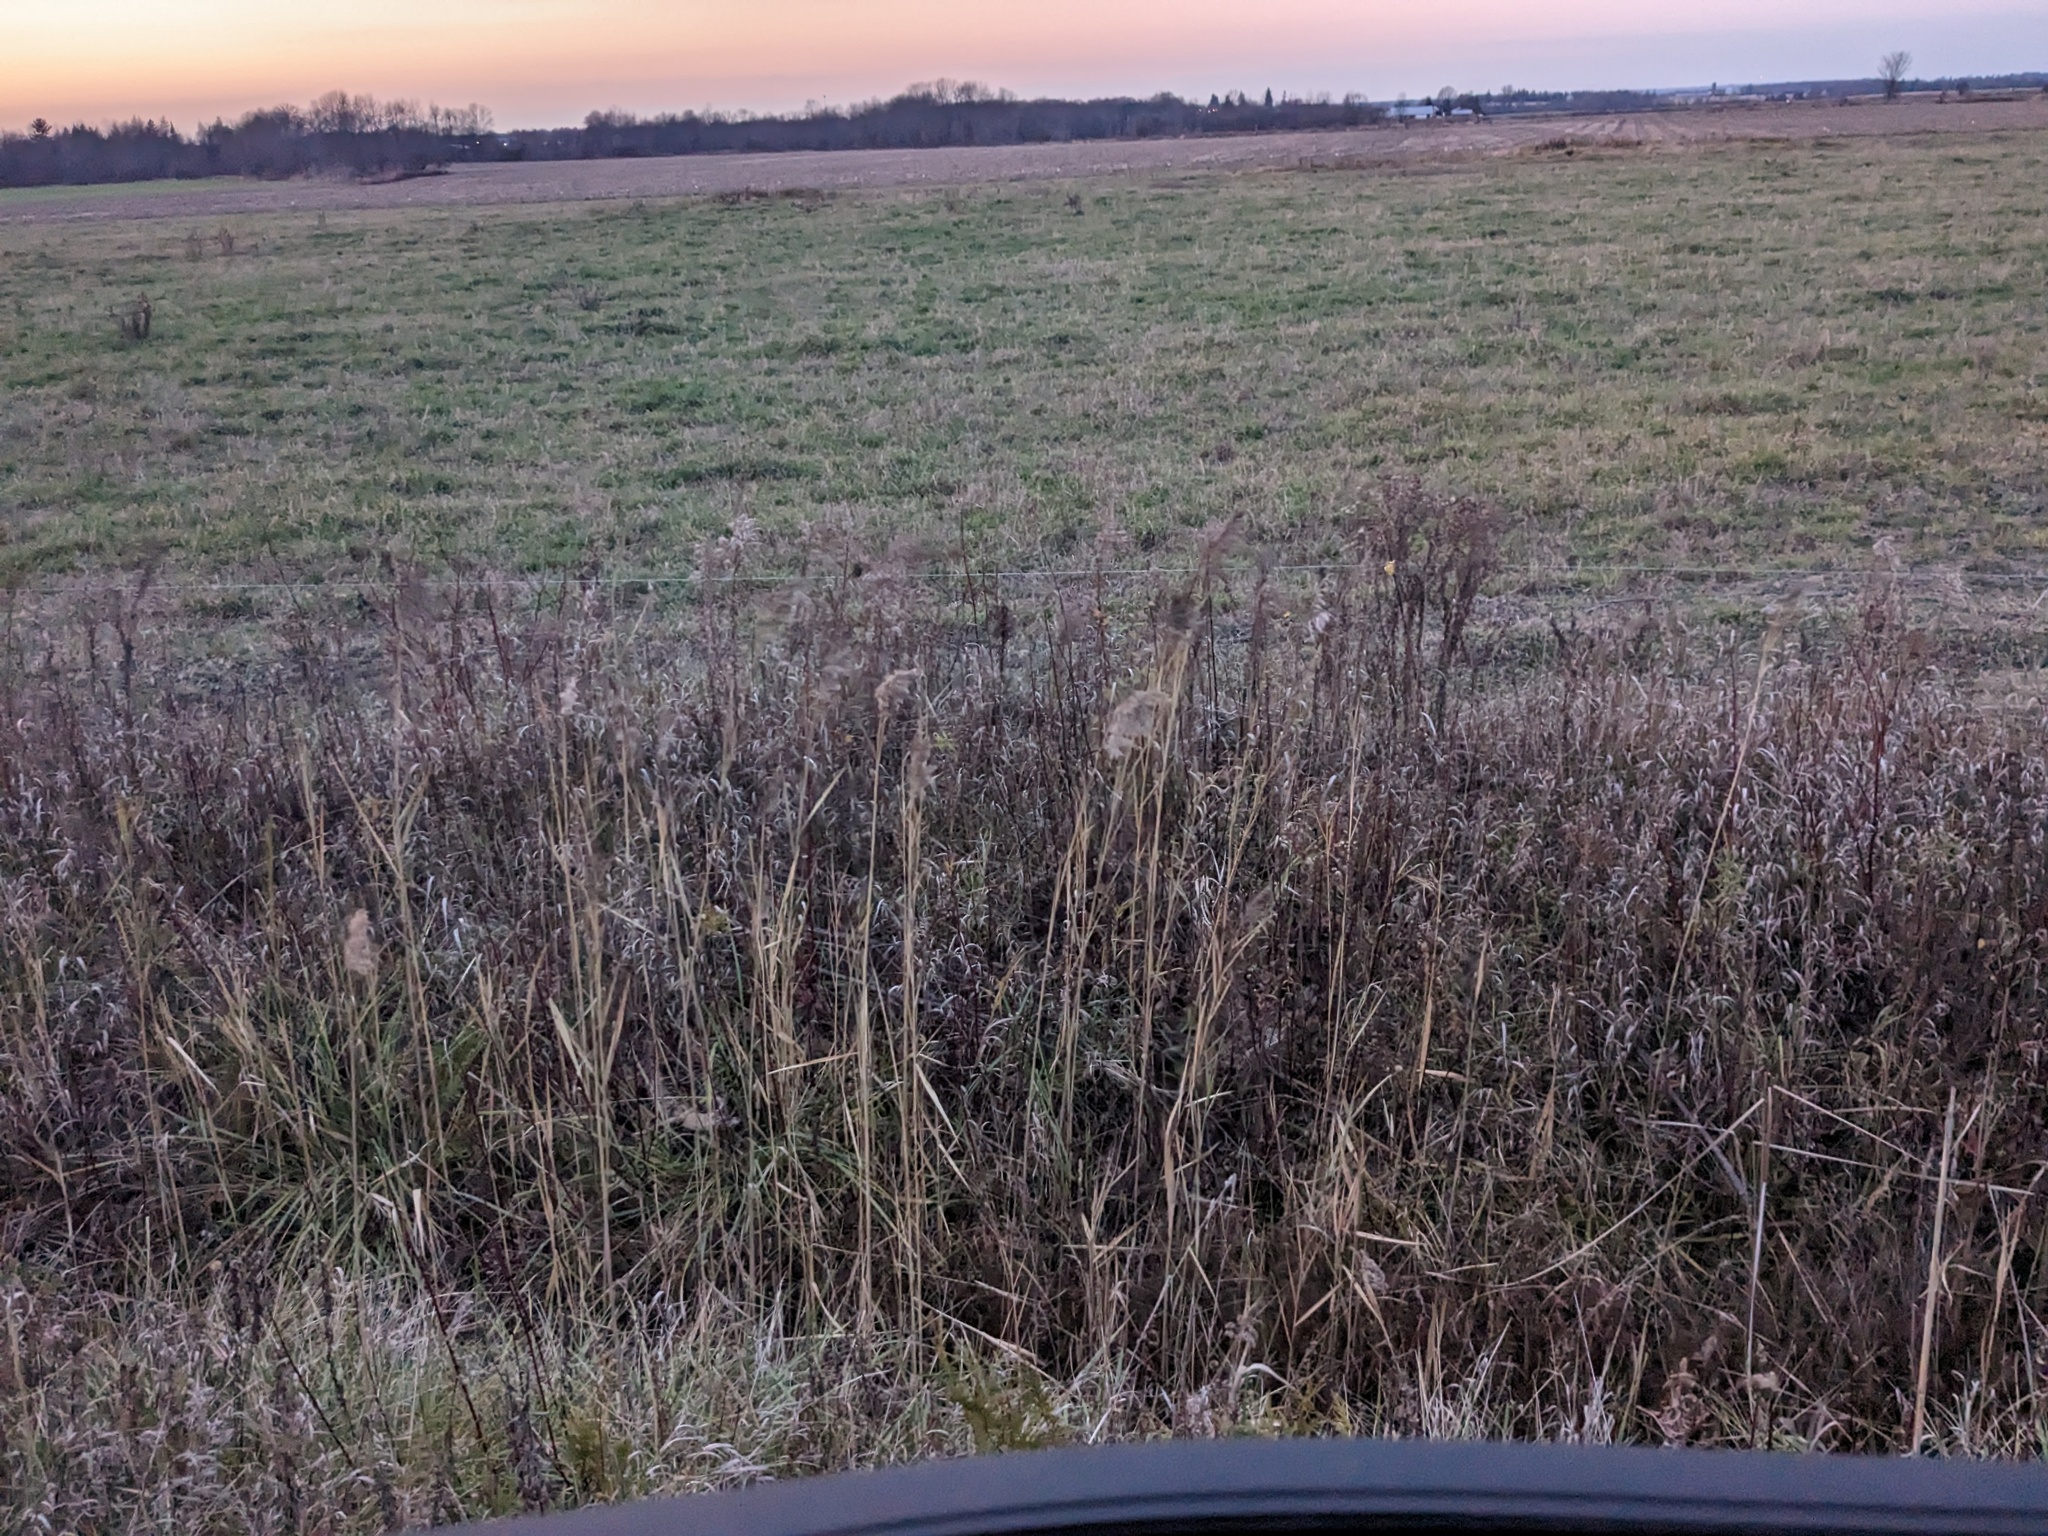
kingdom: Plantae
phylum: Tracheophyta
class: Liliopsida
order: Poales
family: Poaceae
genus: Phragmites
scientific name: Phragmites australis
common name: Common reed
